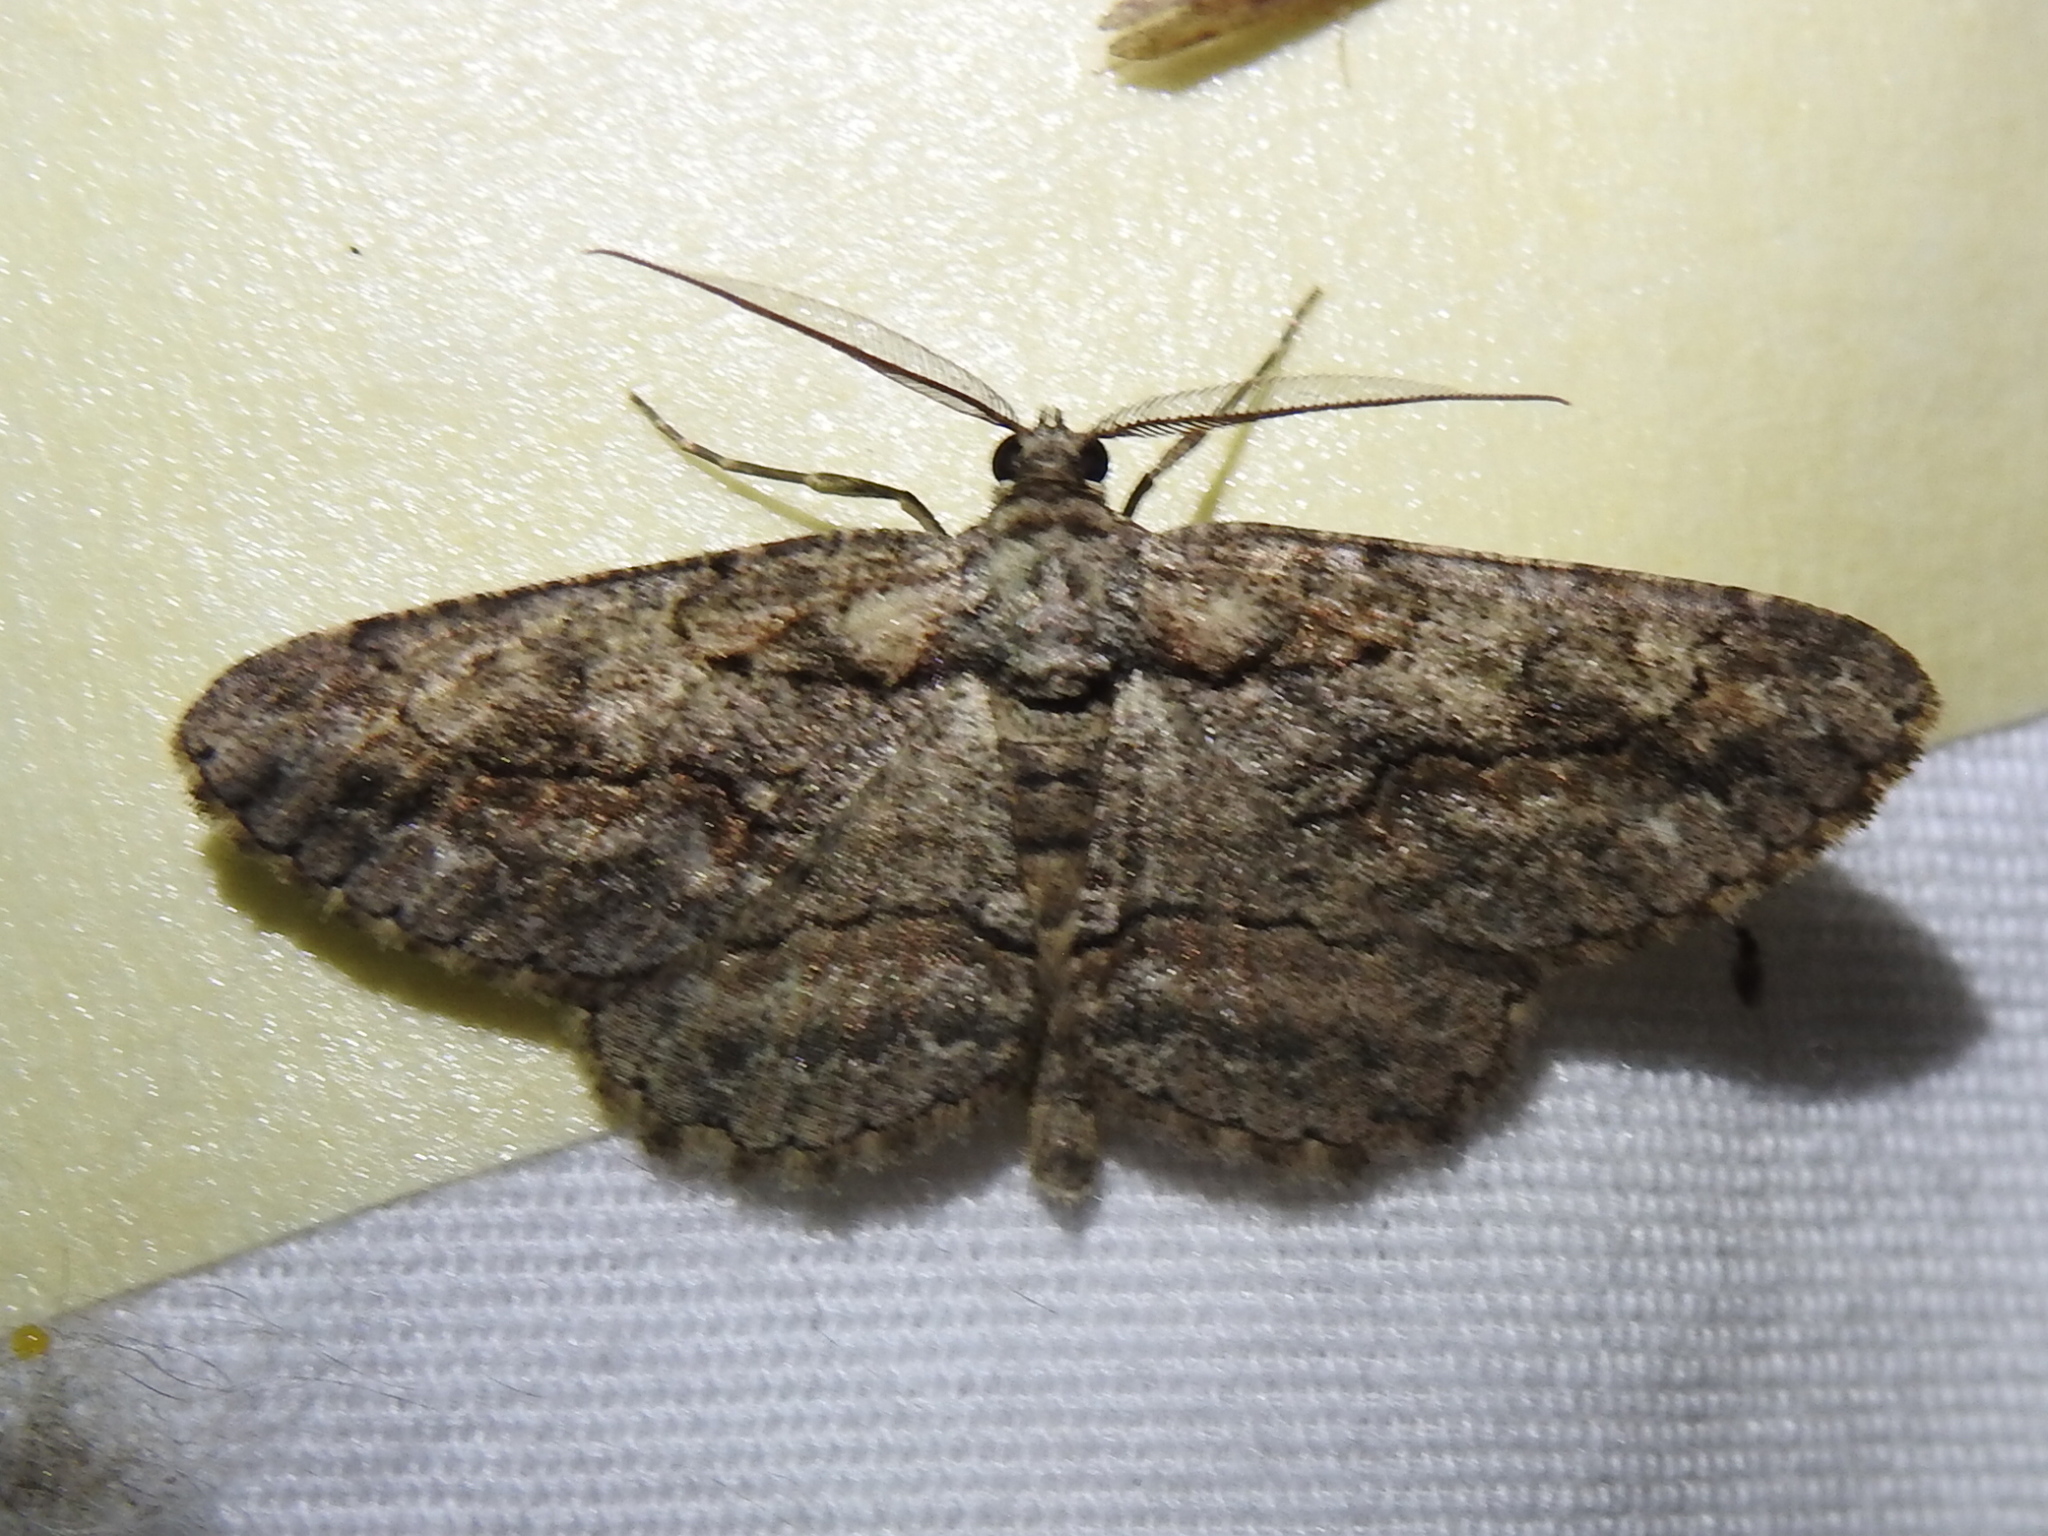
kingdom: Animalia
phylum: Arthropoda
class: Insecta
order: Lepidoptera
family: Geometridae
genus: Anavitrinella
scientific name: Anavitrinella pampinaria
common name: Common gray
